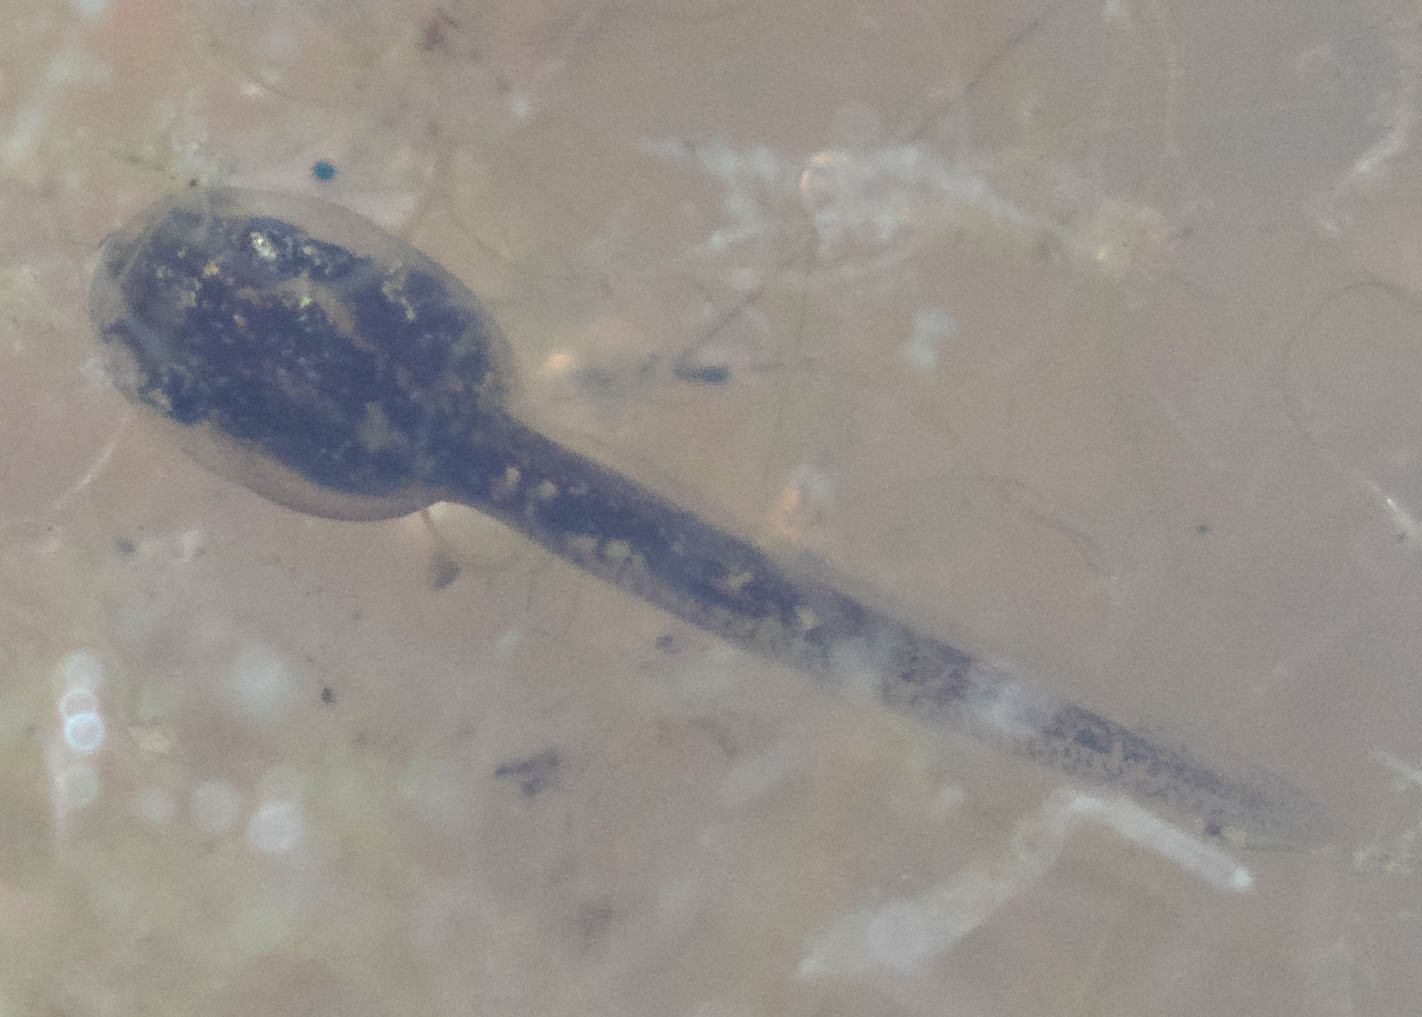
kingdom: Animalia
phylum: Chordata
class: Amphibia
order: Anura
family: Hylidae
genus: Pseudacris
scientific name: Pseudacris regilla
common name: Pacific chorus frog
